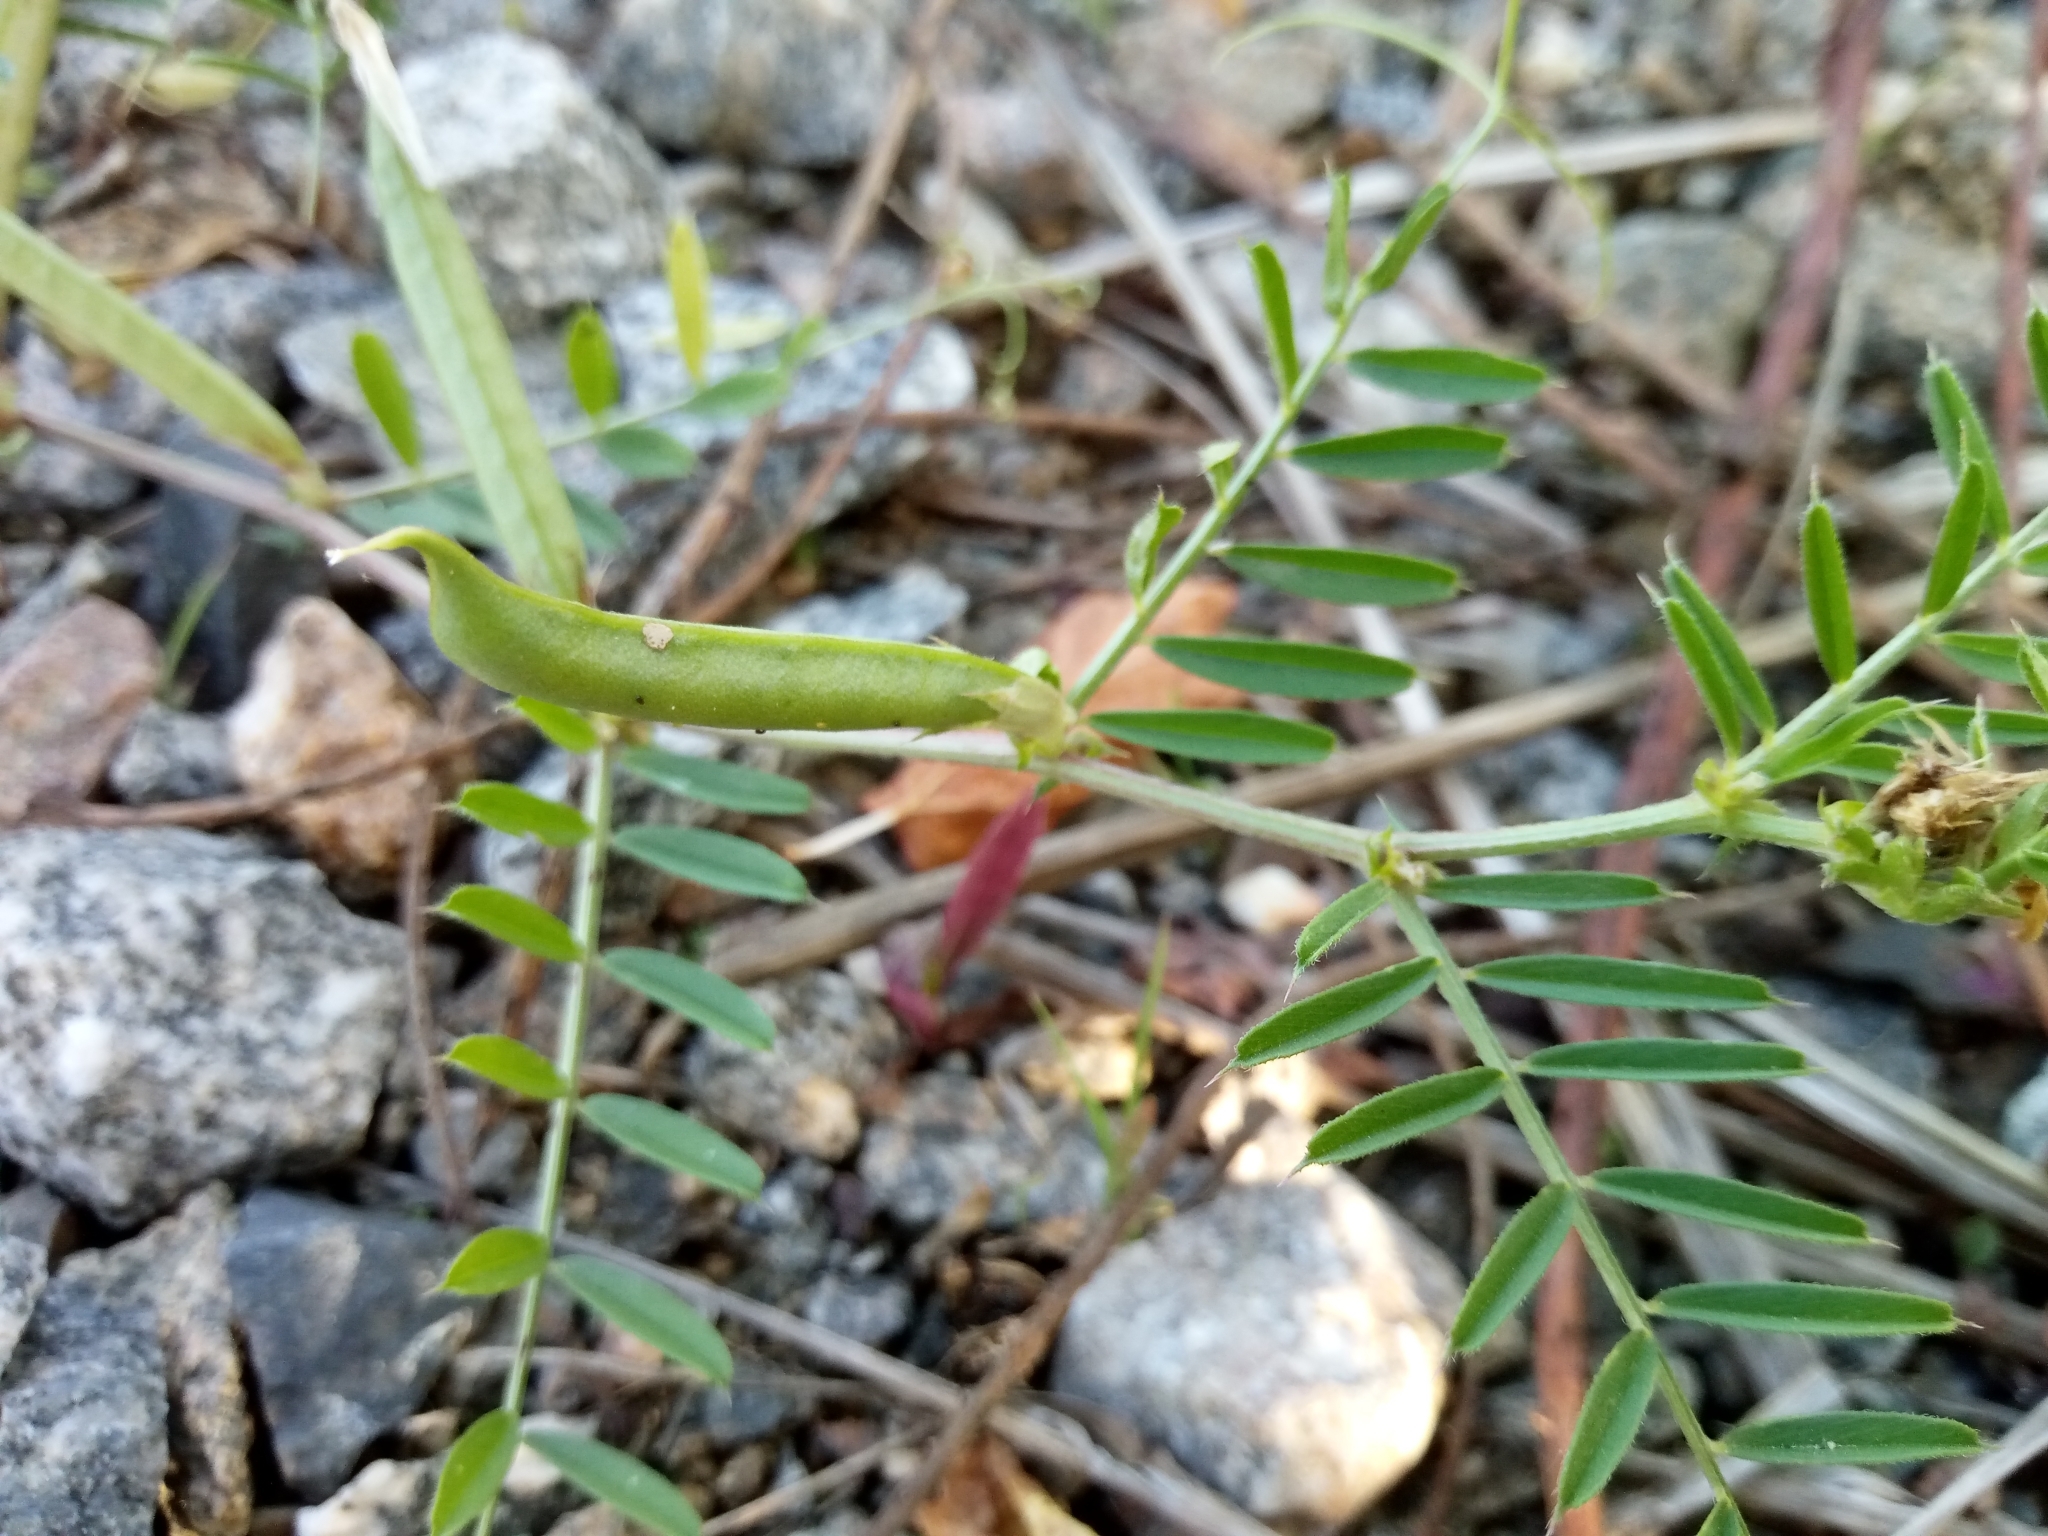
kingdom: Plantae
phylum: Tracheophyta
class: Magnoliopsida
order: Fabales
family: Fabaceae
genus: Vicia
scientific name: Vicia sativa
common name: Garden vetch
